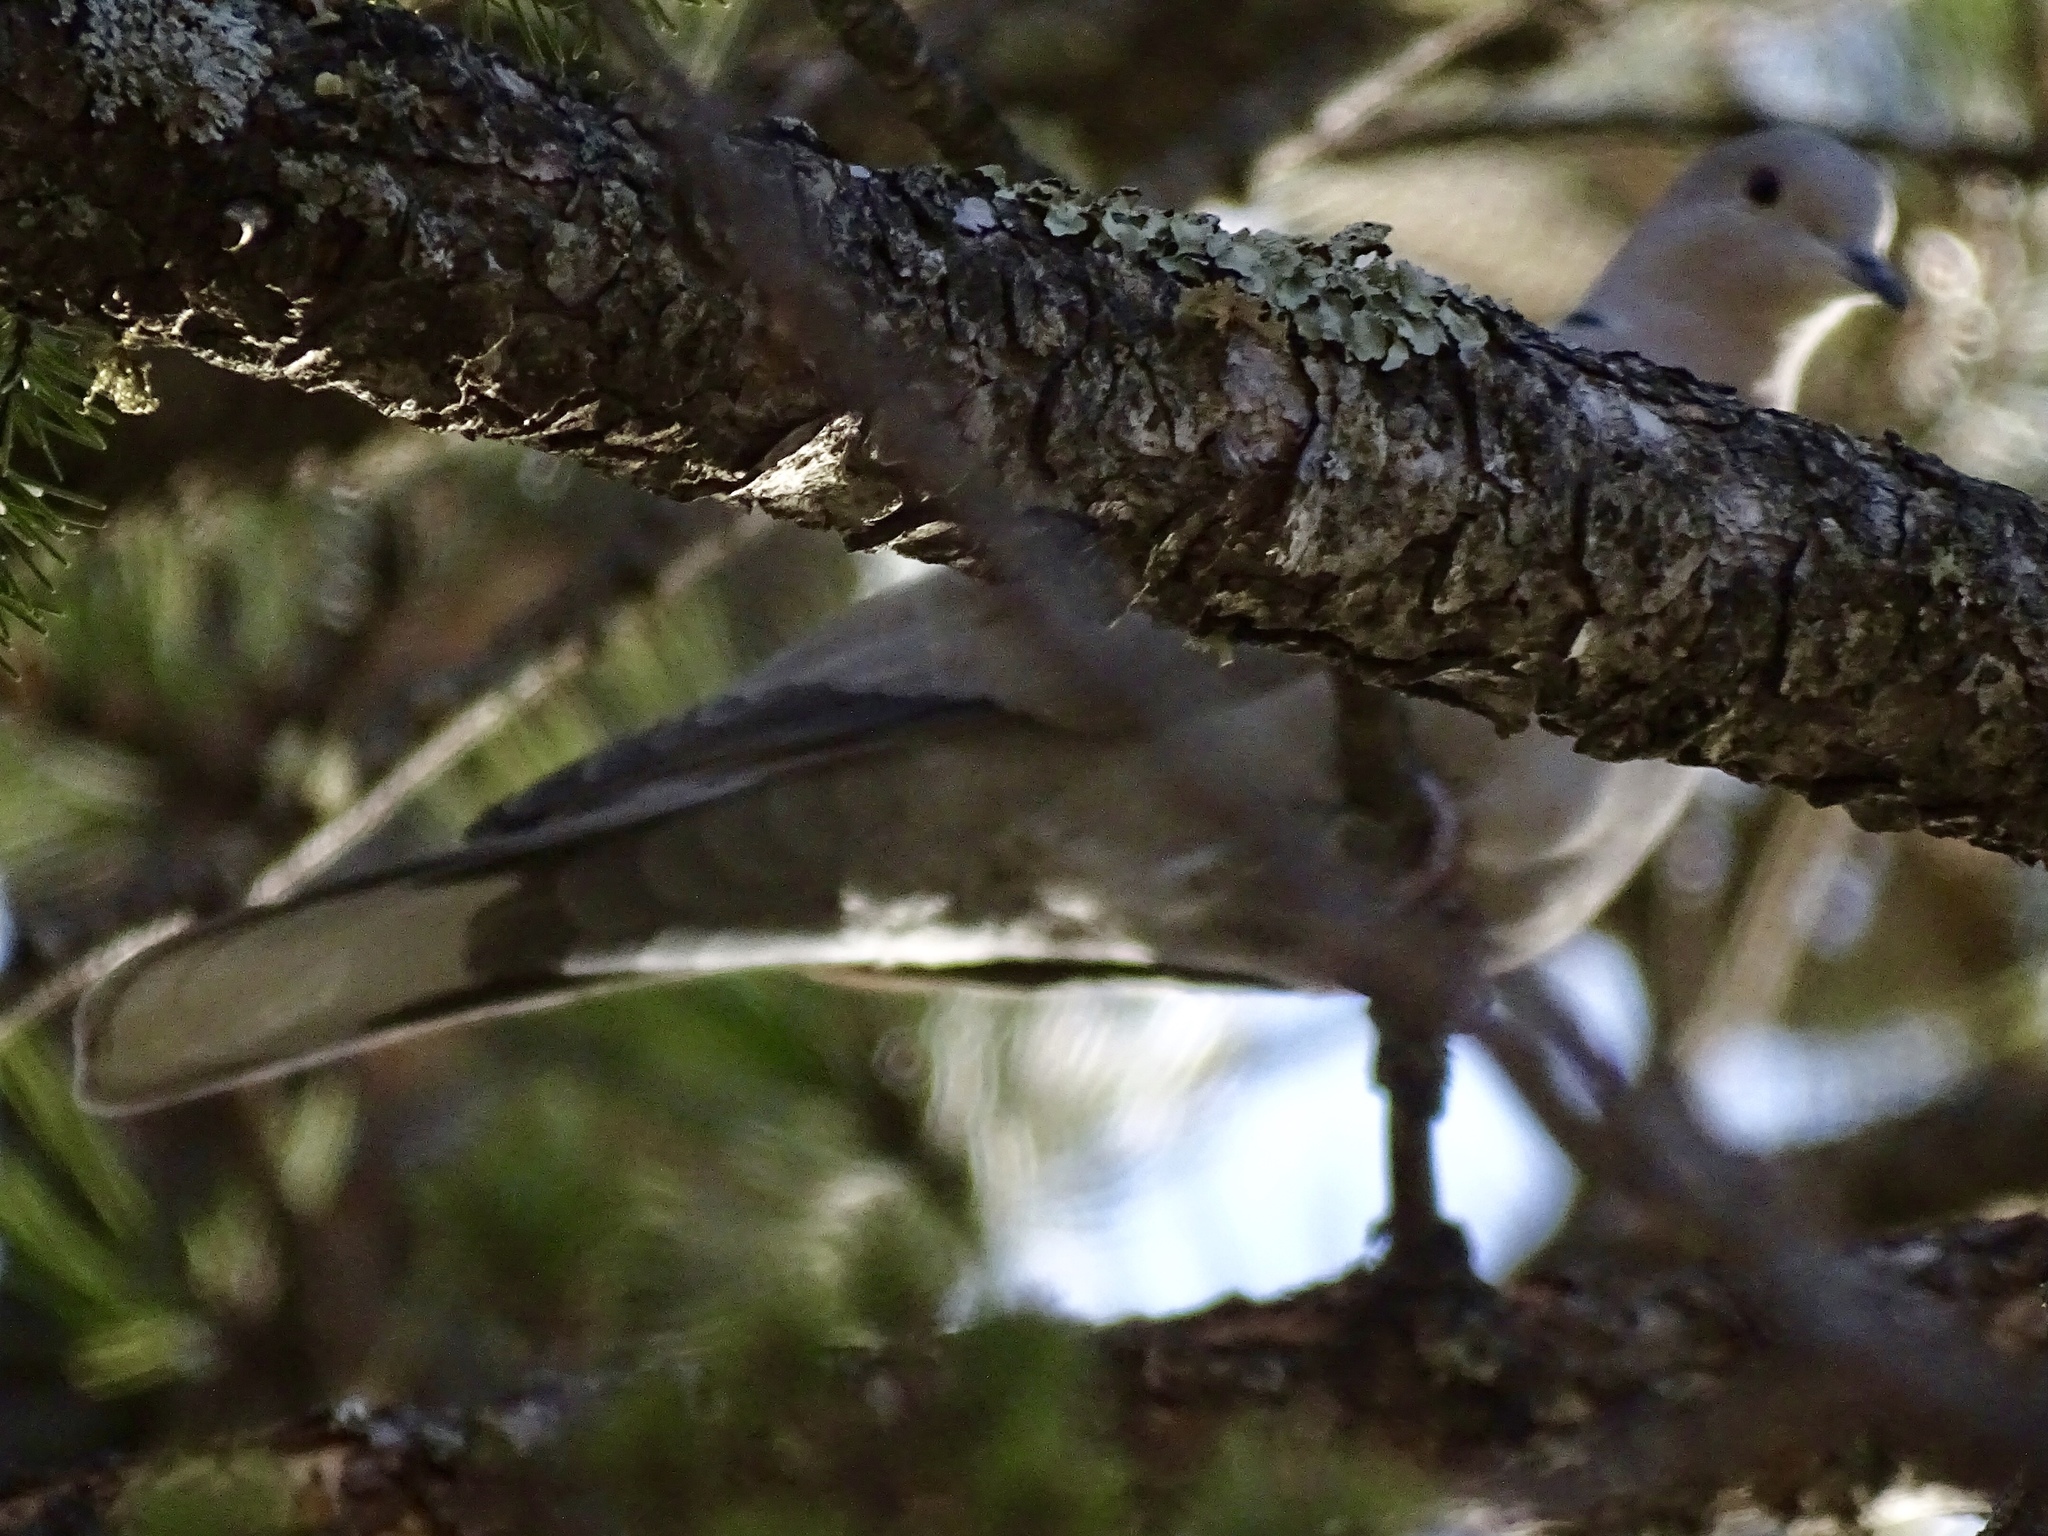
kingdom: Animalia
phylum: Chordata
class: Aves
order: Columbiformes
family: Columbidae
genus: Streptopelia
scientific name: Streptopelia decaocto
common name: Eurasian collared dove
